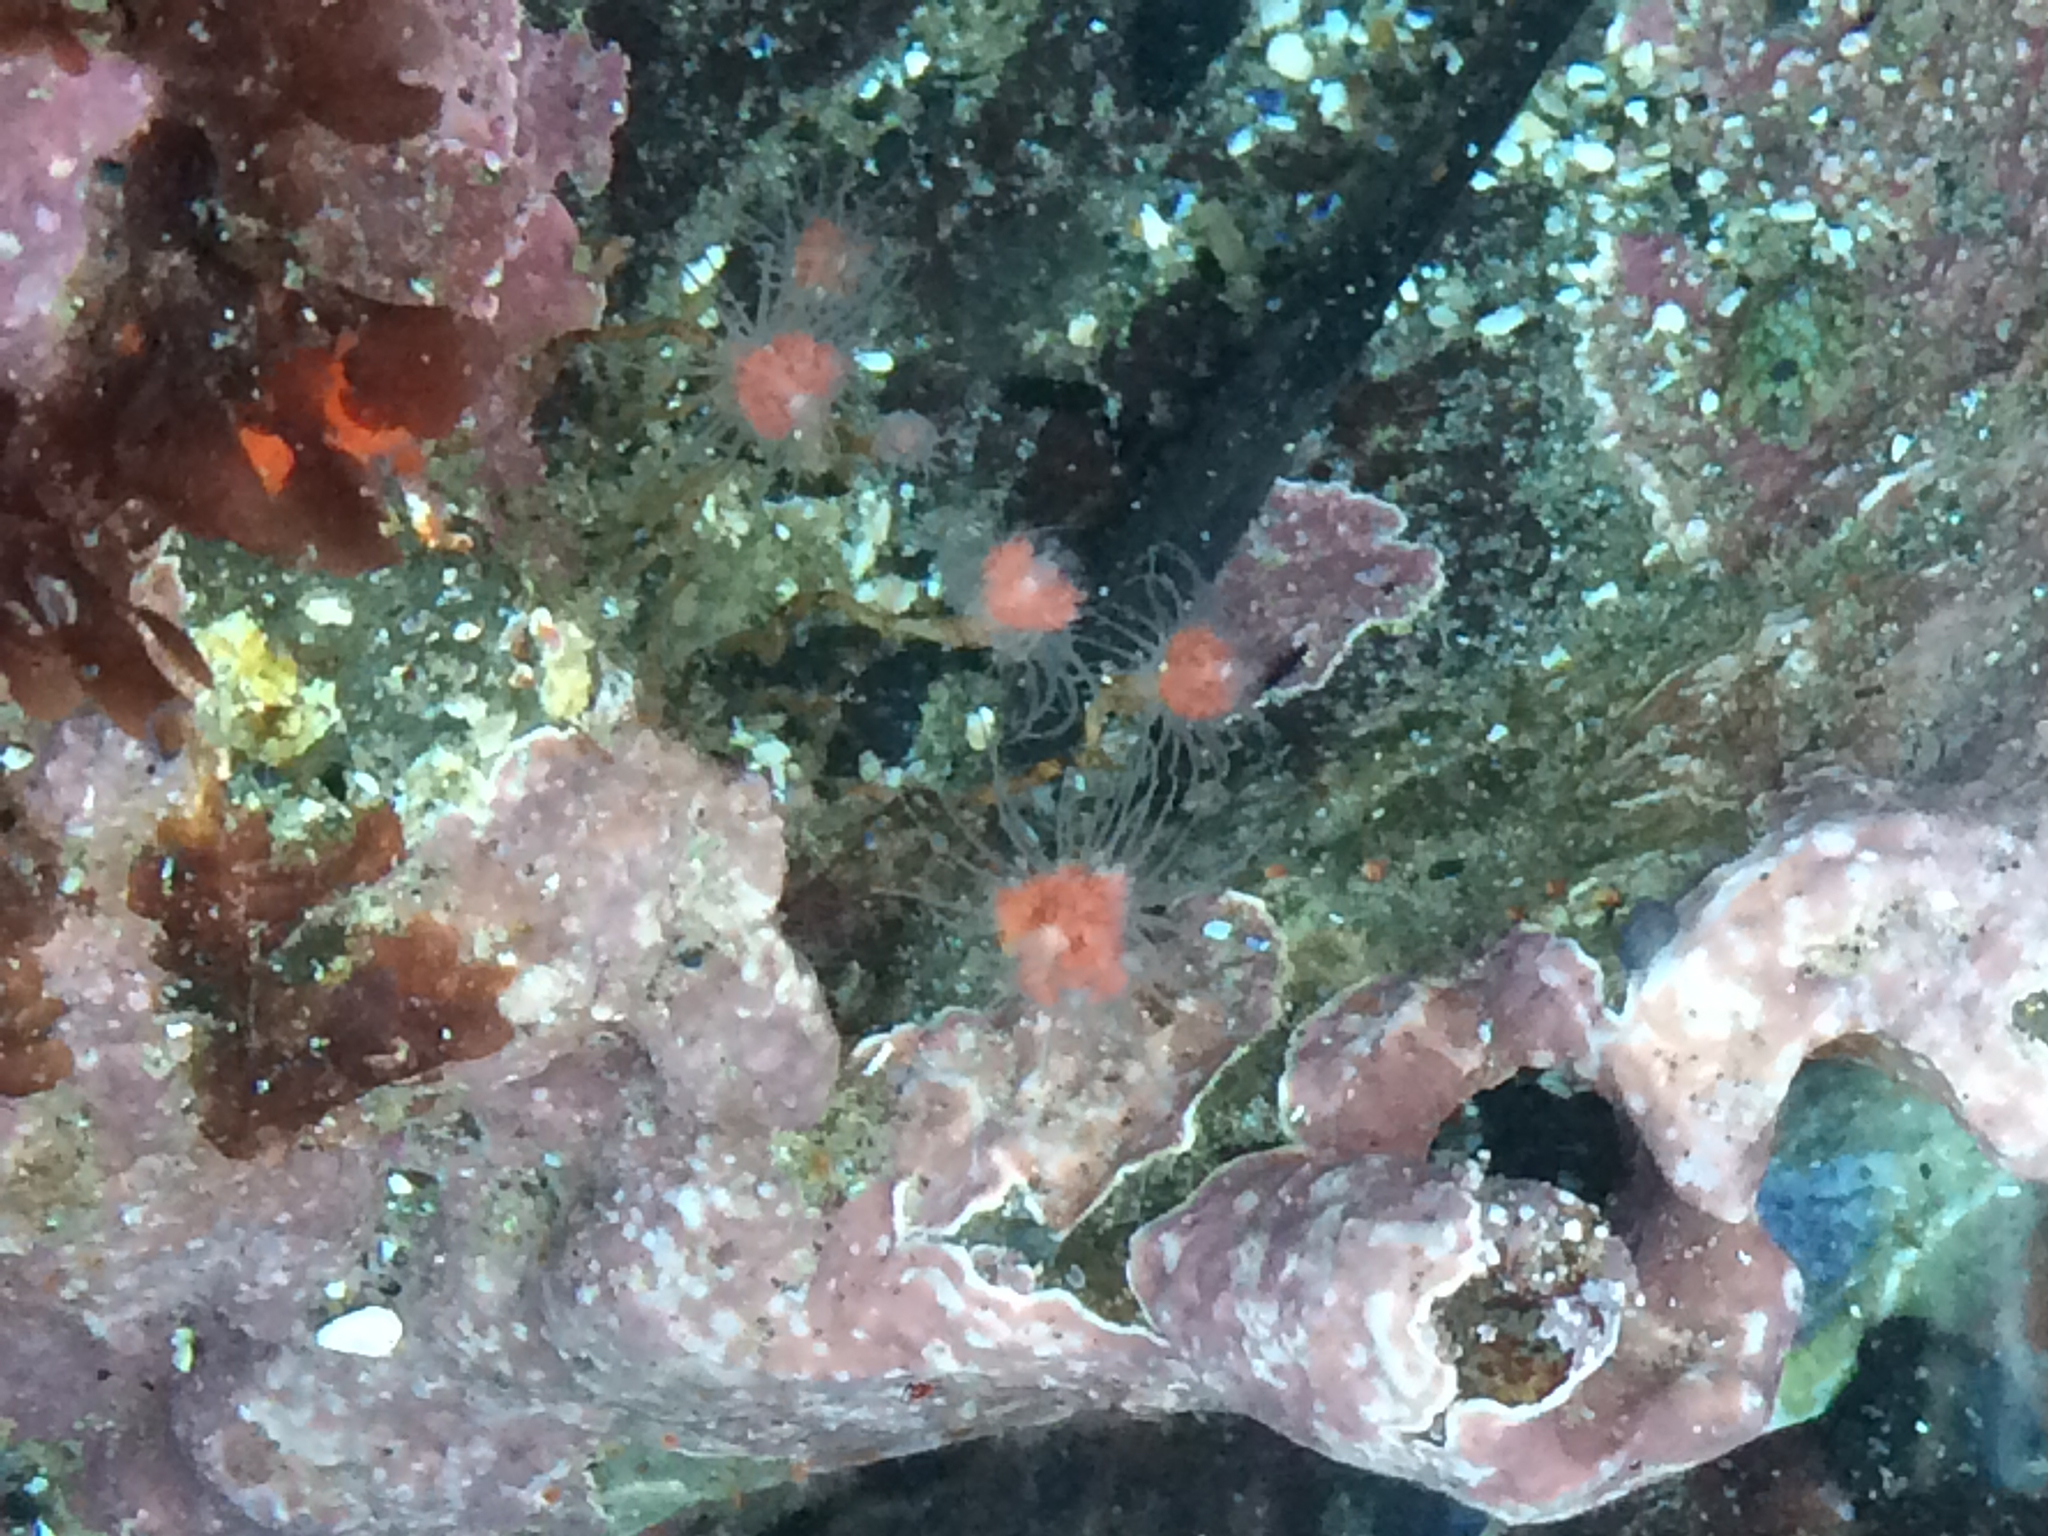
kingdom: Animalia
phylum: Cnidaria
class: Hydrozoa
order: Anthoathecata
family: Tubulariidae
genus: Ectopleura
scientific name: Ectopleura marina
